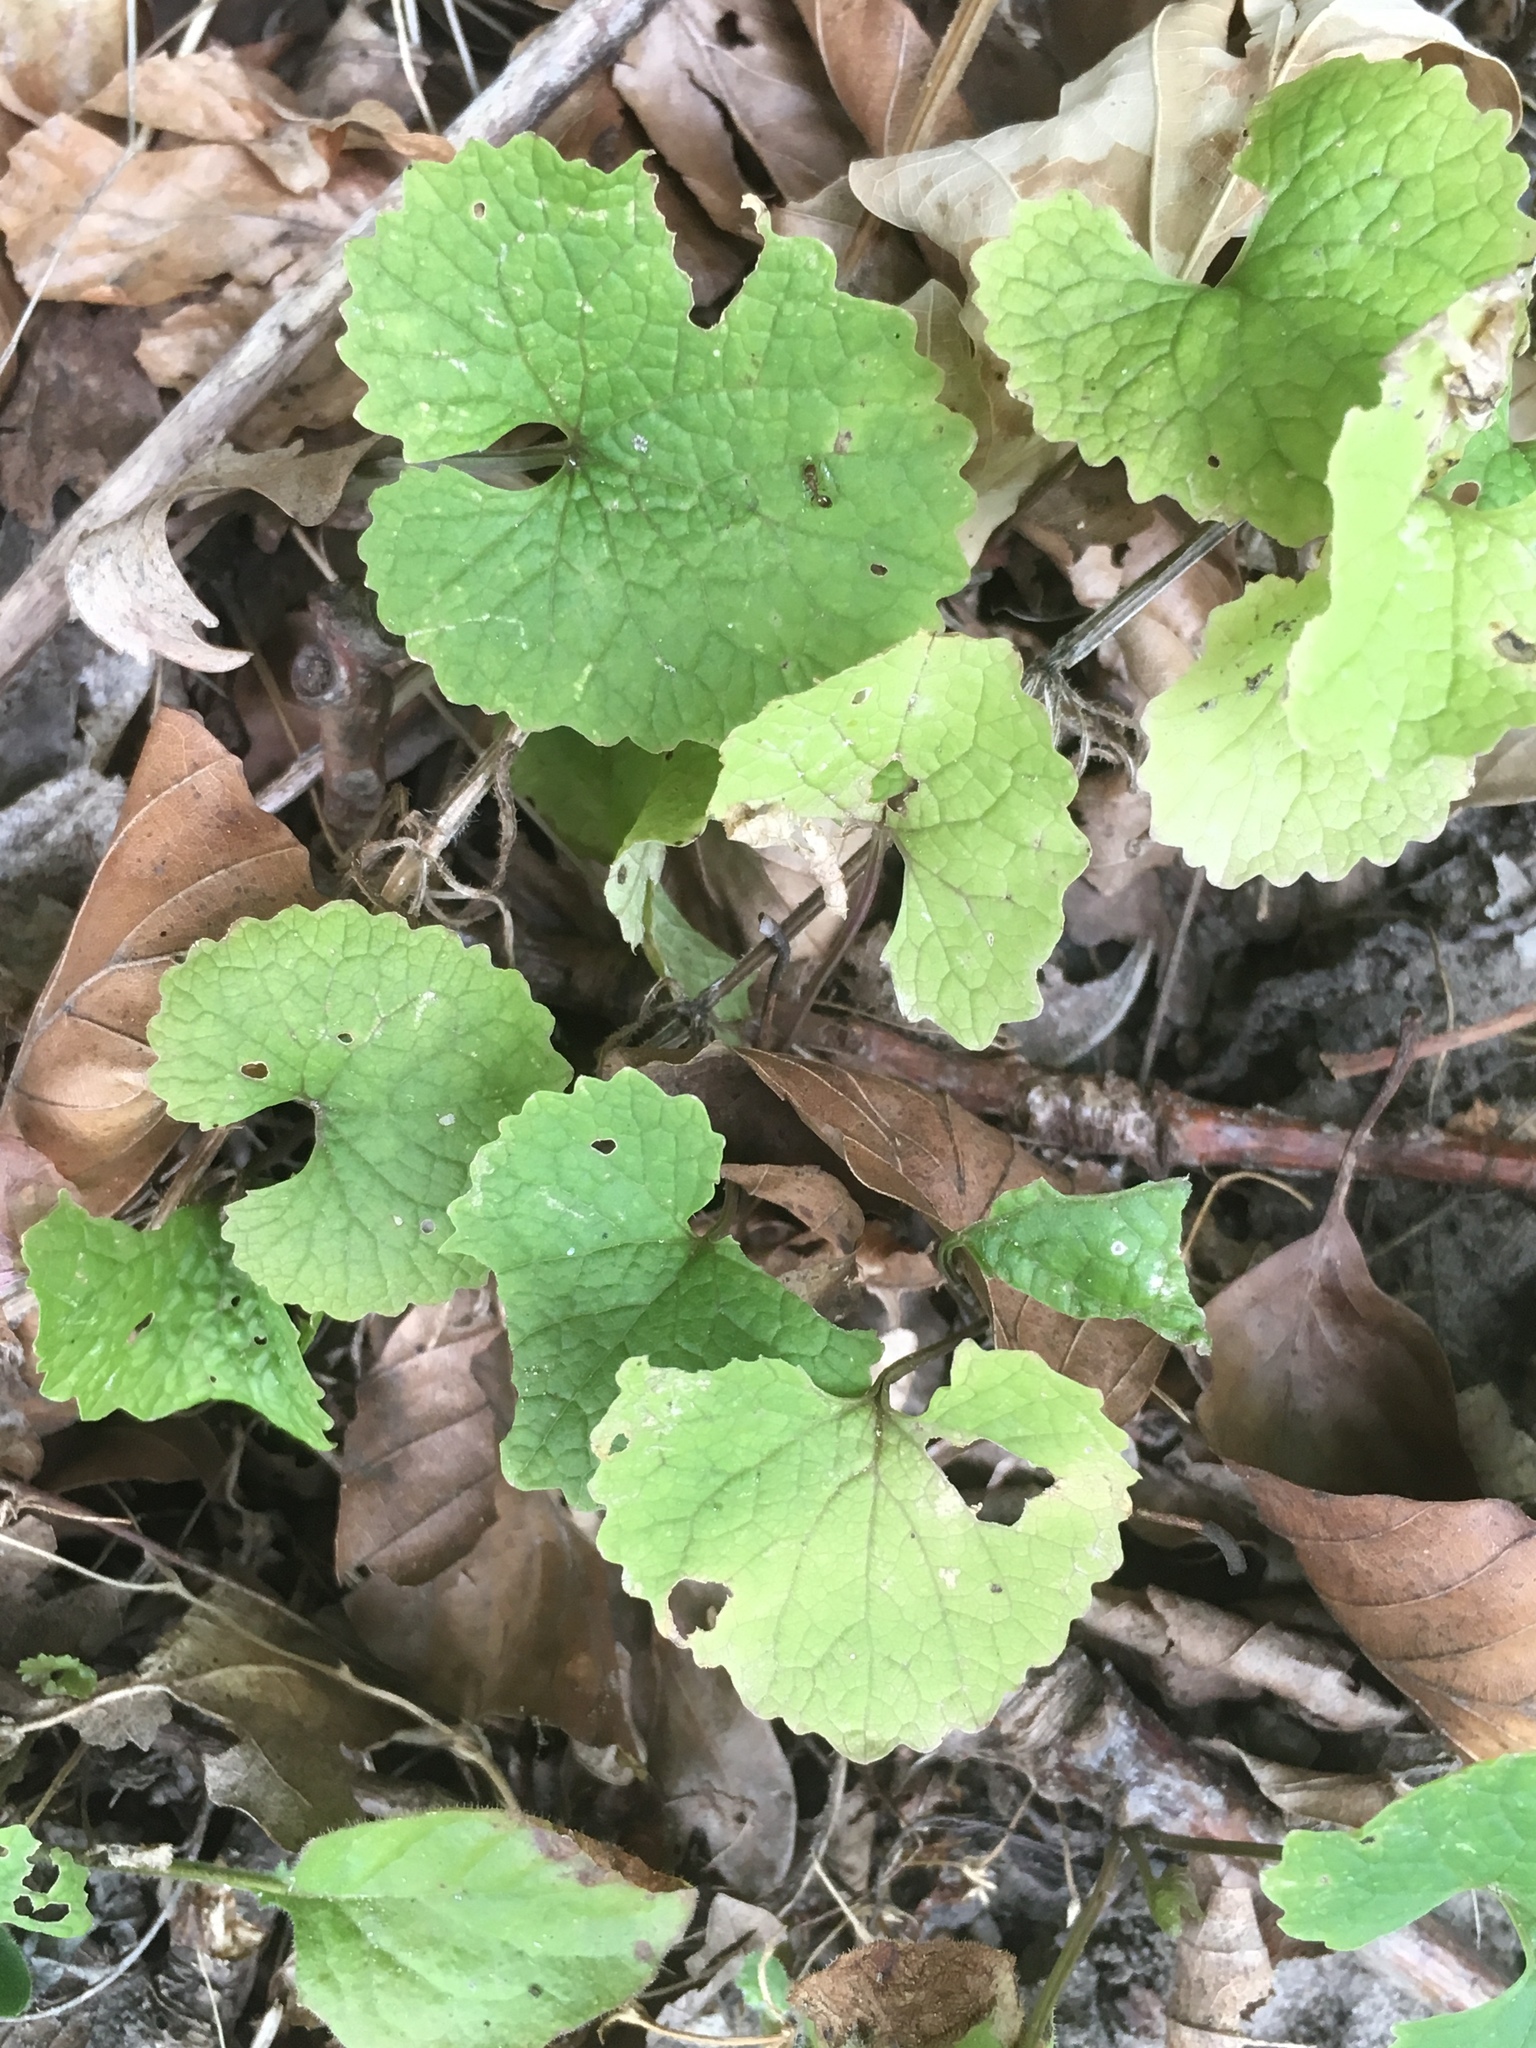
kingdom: Plantae
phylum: Tracheophyta
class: Magnoliopsida
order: Brassicales
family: Brassicaceae
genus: Alliaria
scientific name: Alliaria petiolata
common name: Garlic mustard
